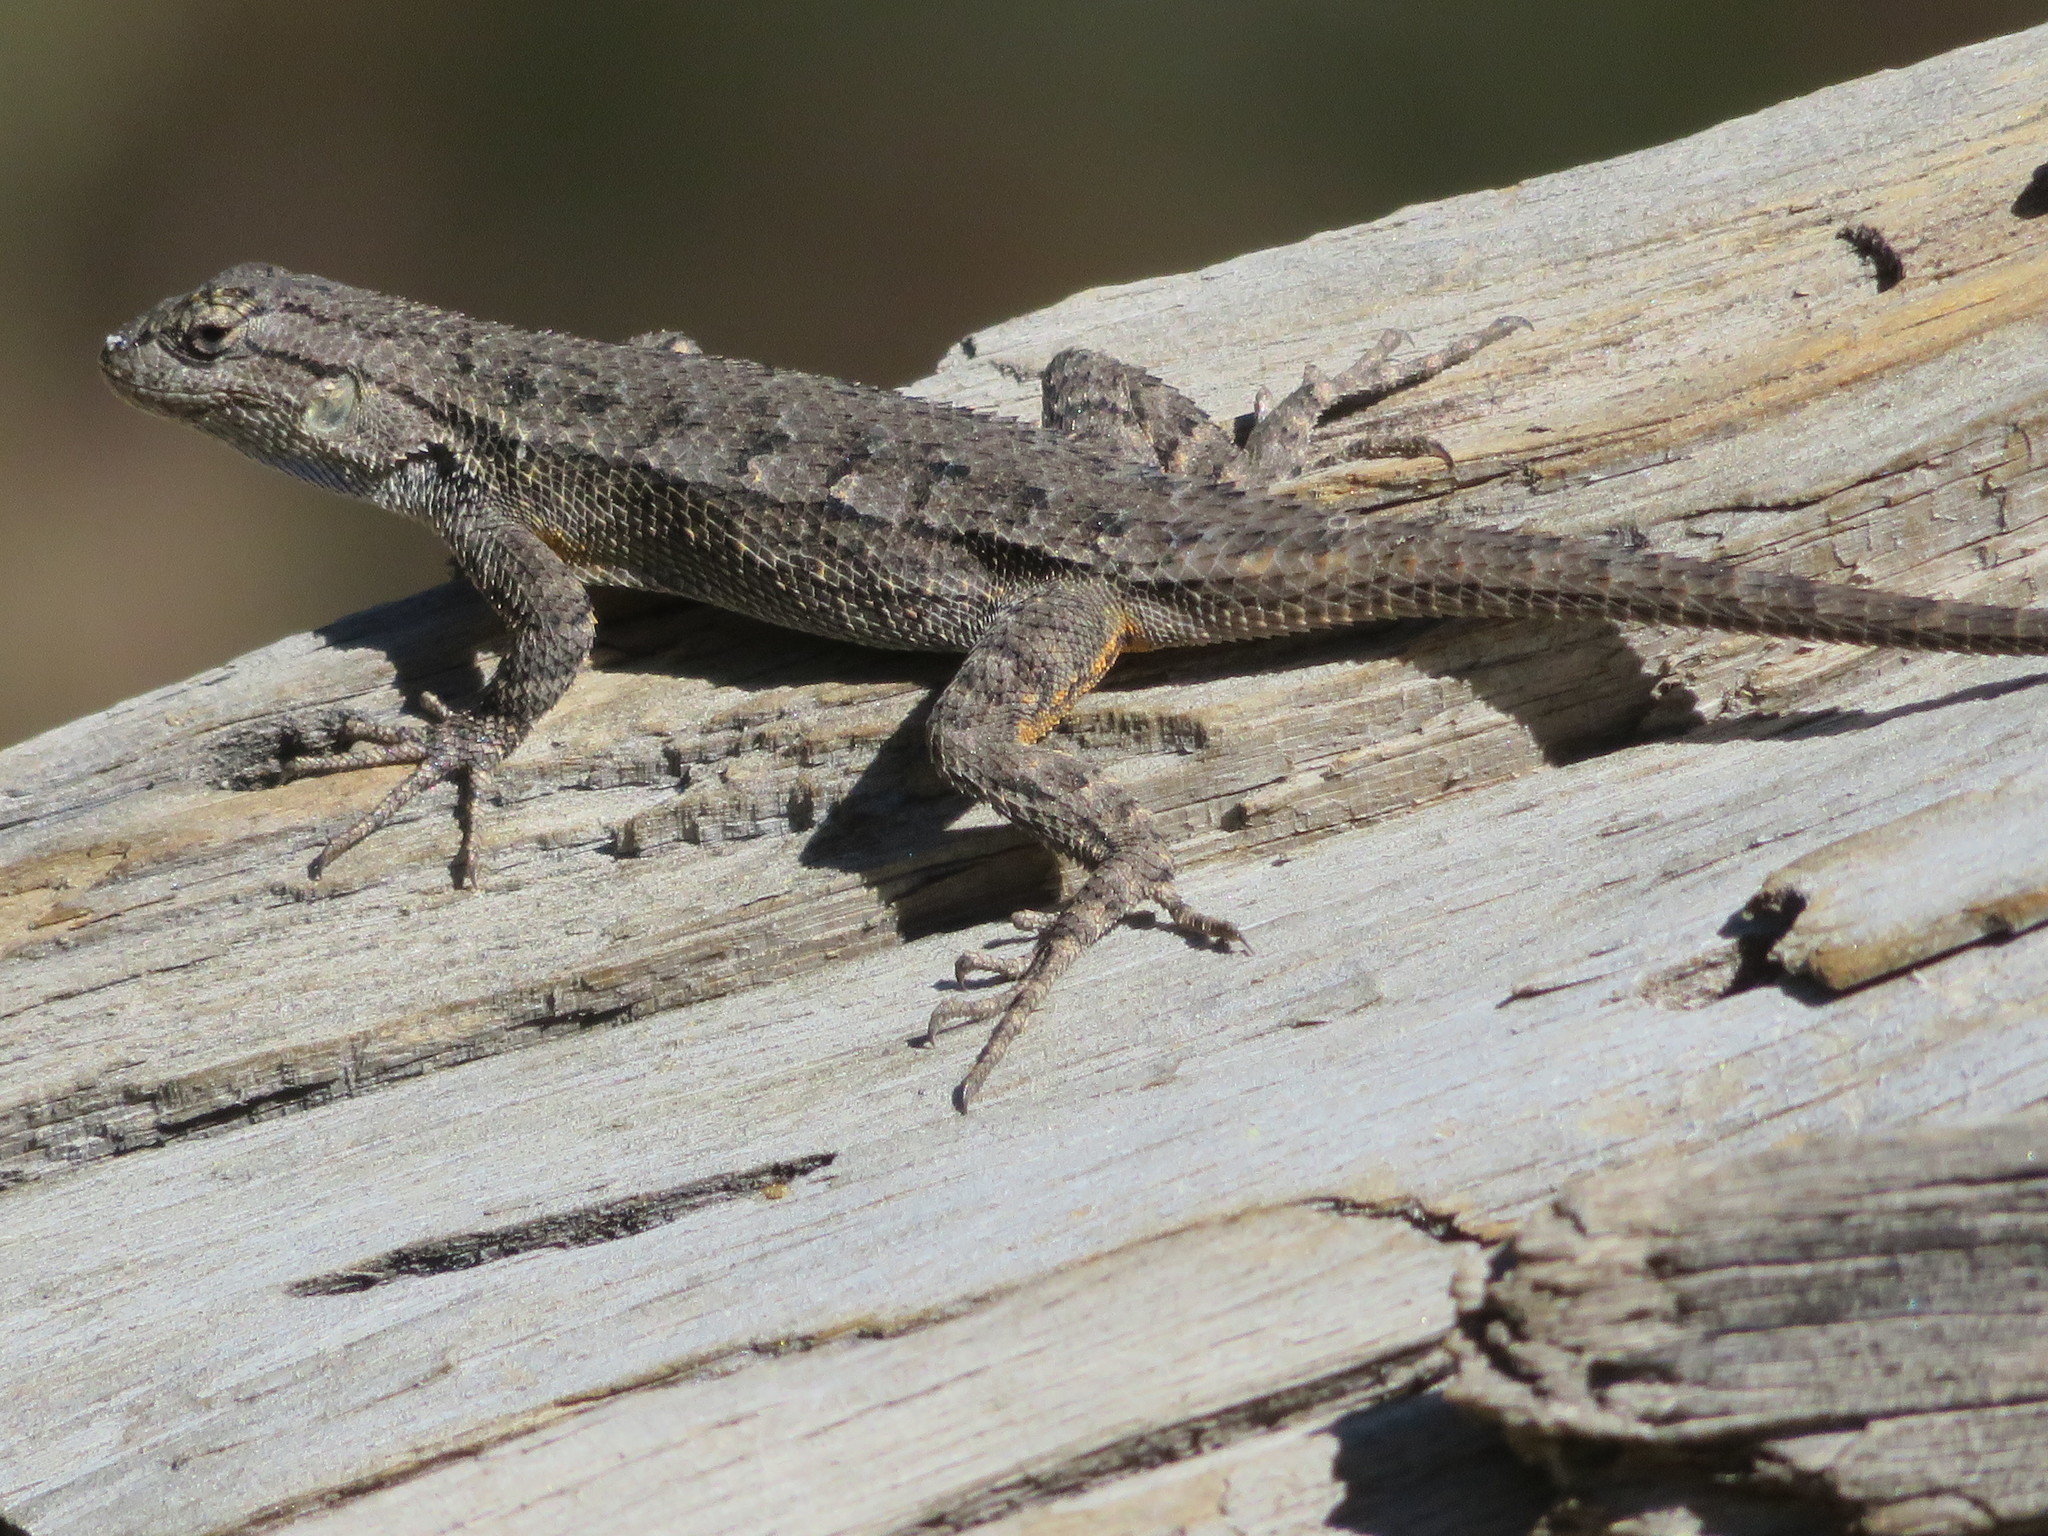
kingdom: Animalia
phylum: Chordata
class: Squamata
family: Phrynosomatidae
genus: Sceloporus
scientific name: Sceloporus occidentalis
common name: Western fence lizard
